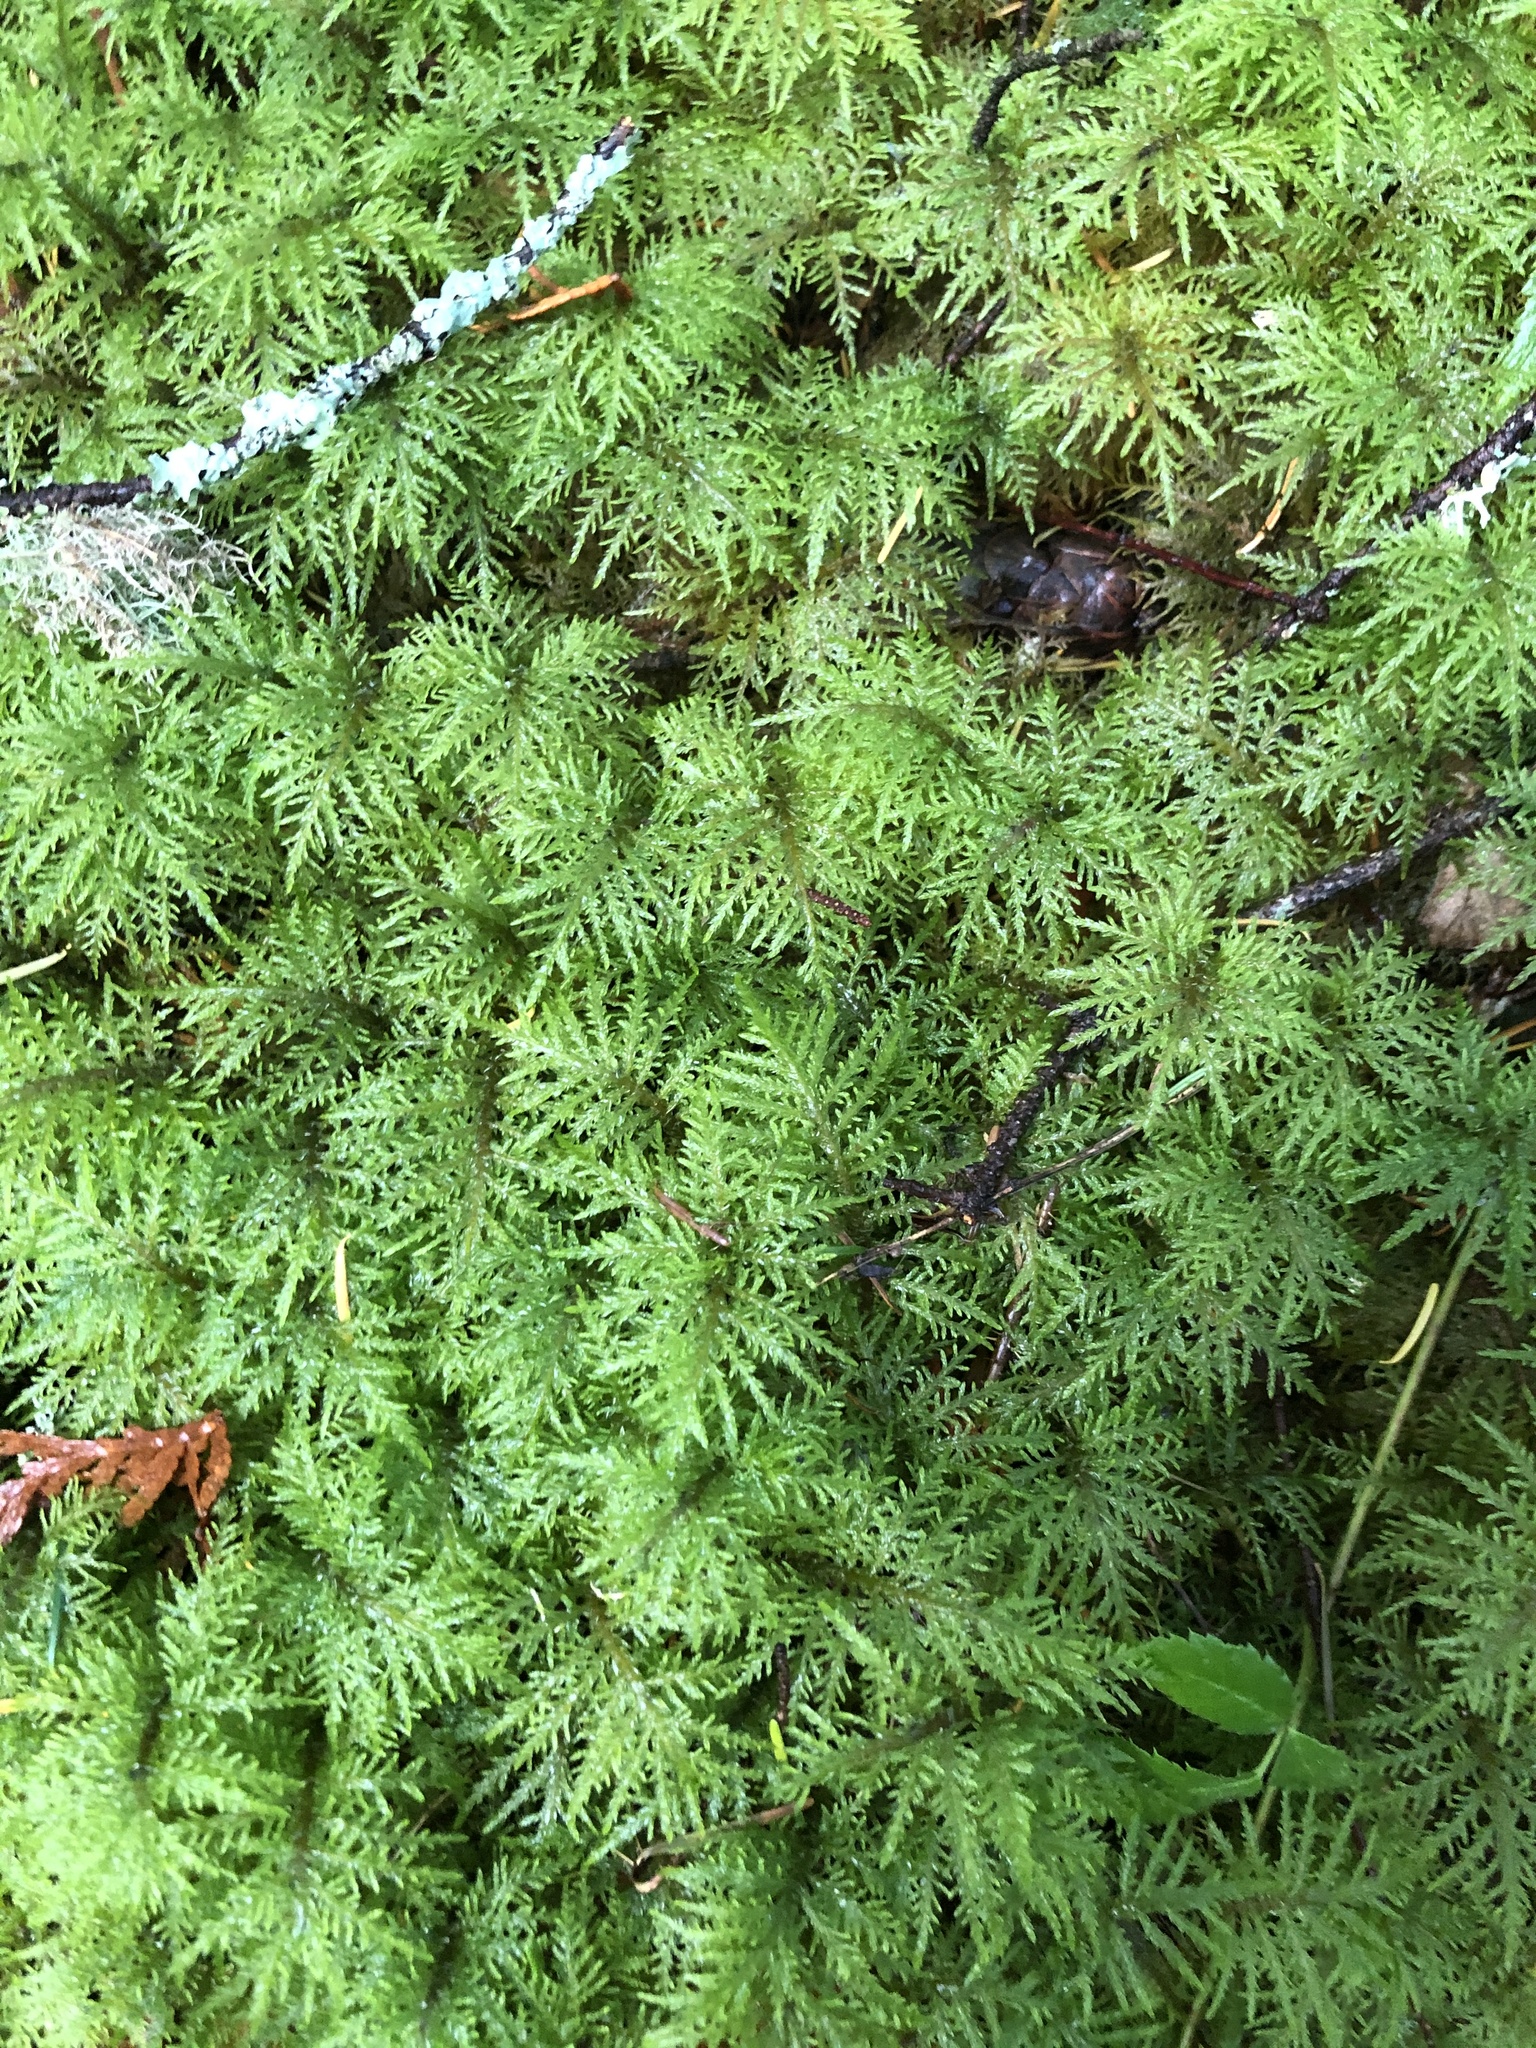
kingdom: Plantae
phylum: Bryophyta
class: Bryopsida
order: Hypnales
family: Hylocomiaceae
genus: Hylocomium
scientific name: Hylocomium splendens
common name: Stairstep moss
